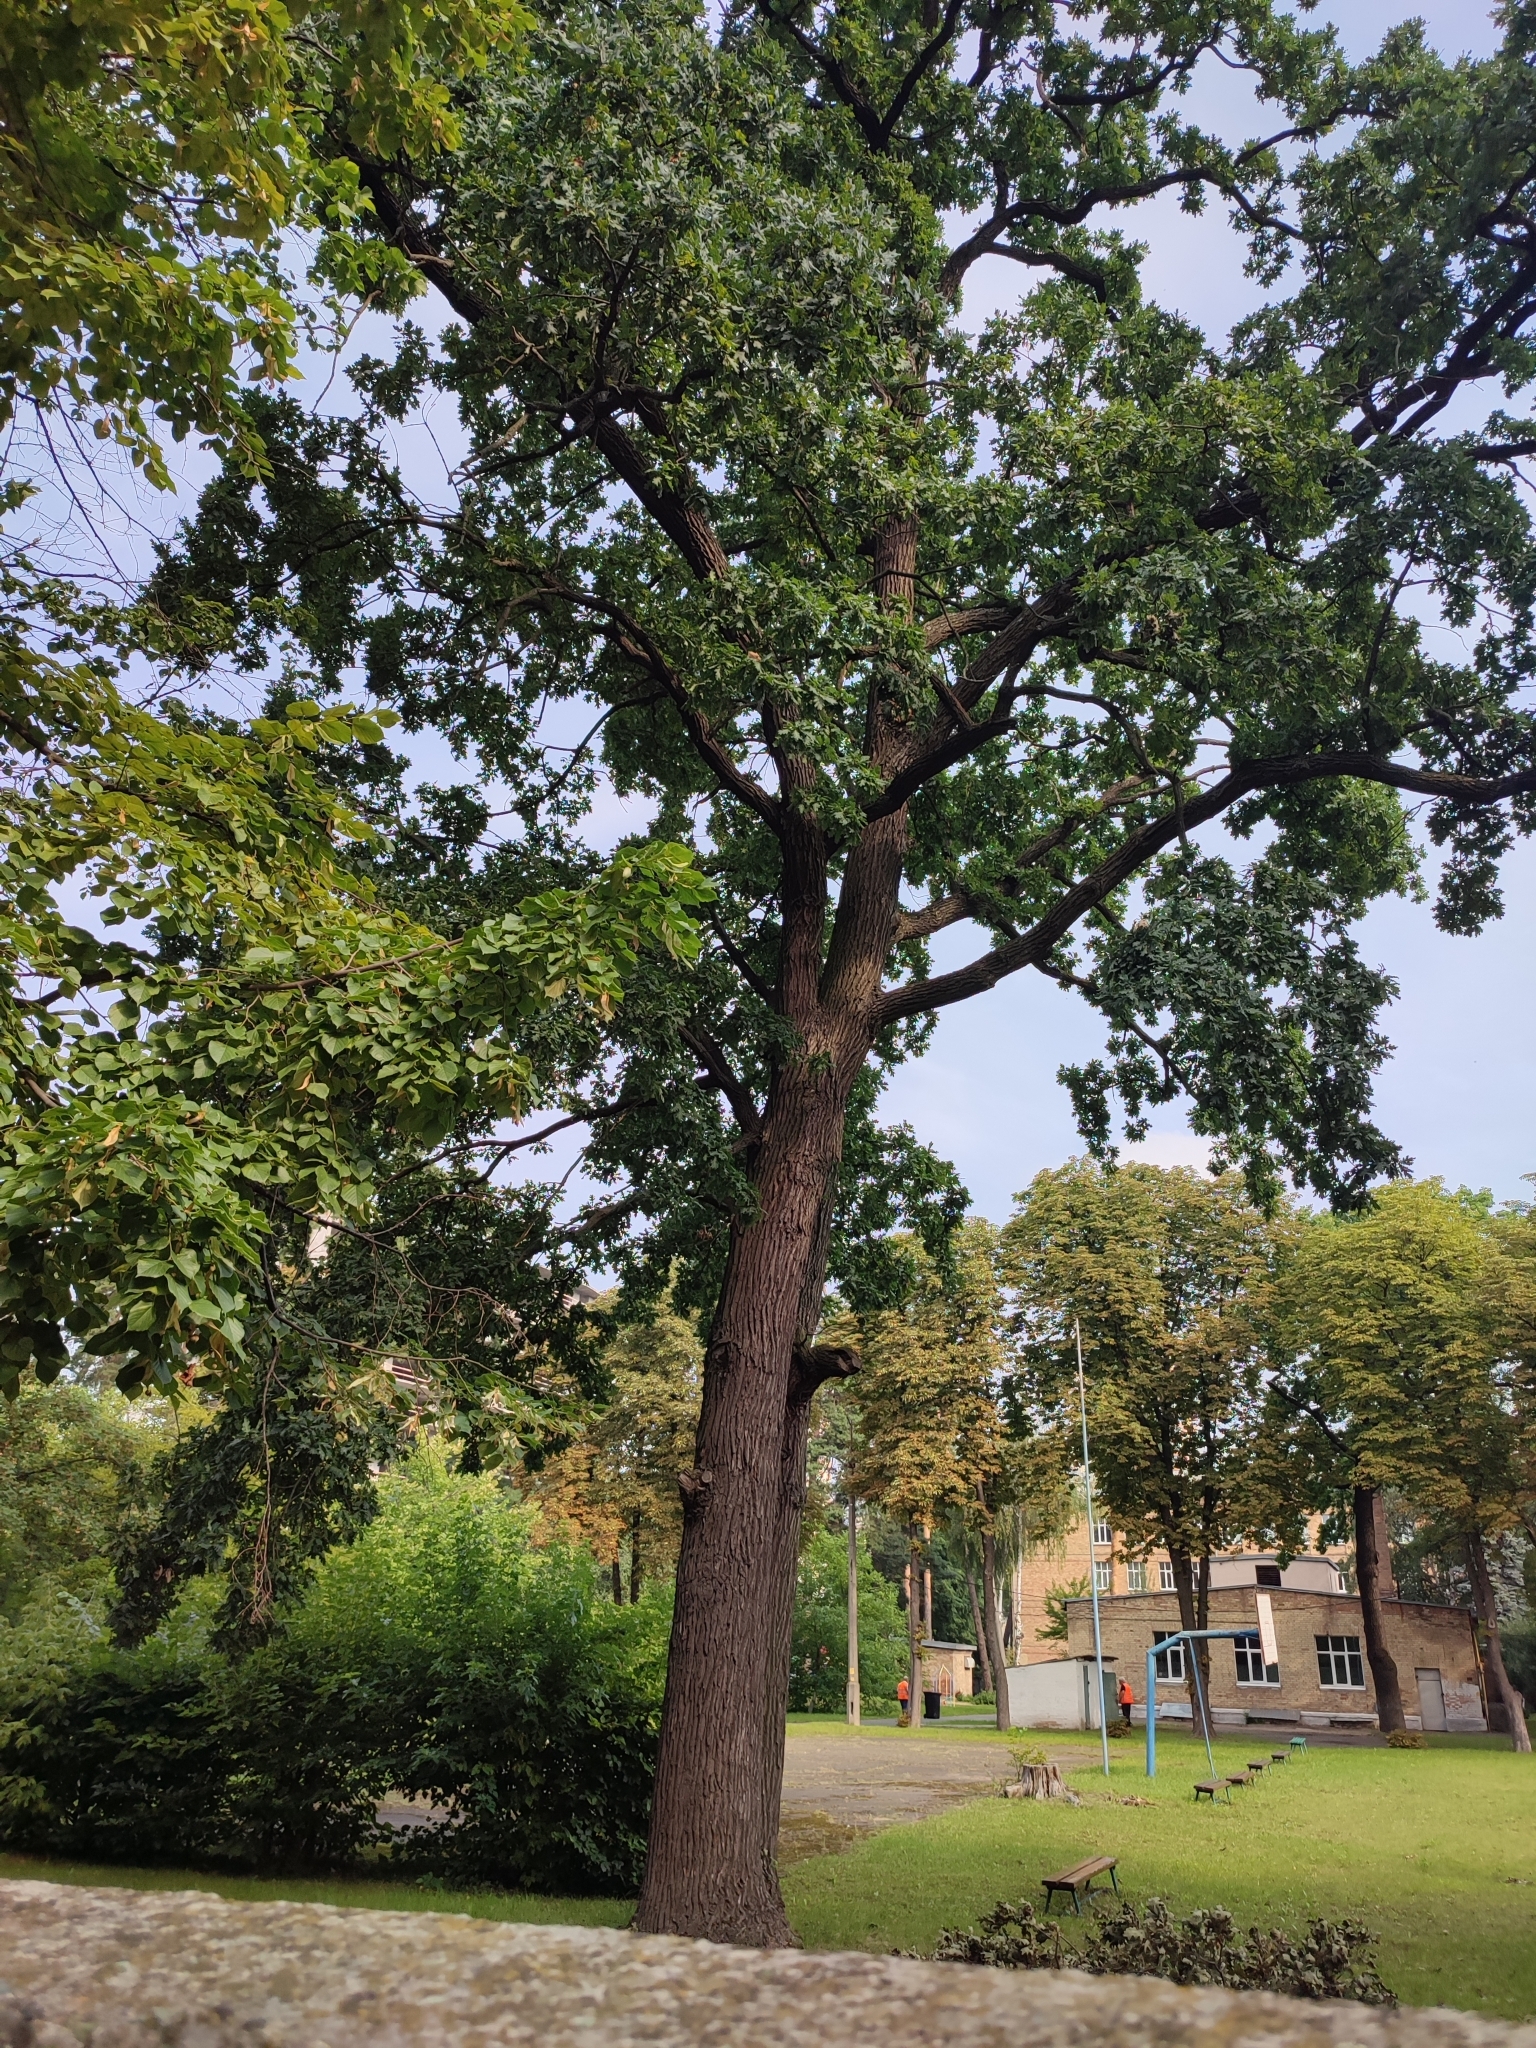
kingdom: Plantae
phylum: Tracheophyta
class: Magnoliopsida
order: Fagales
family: Fagaceae
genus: Quercus
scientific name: Quercus robur
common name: Pedunculate oak
